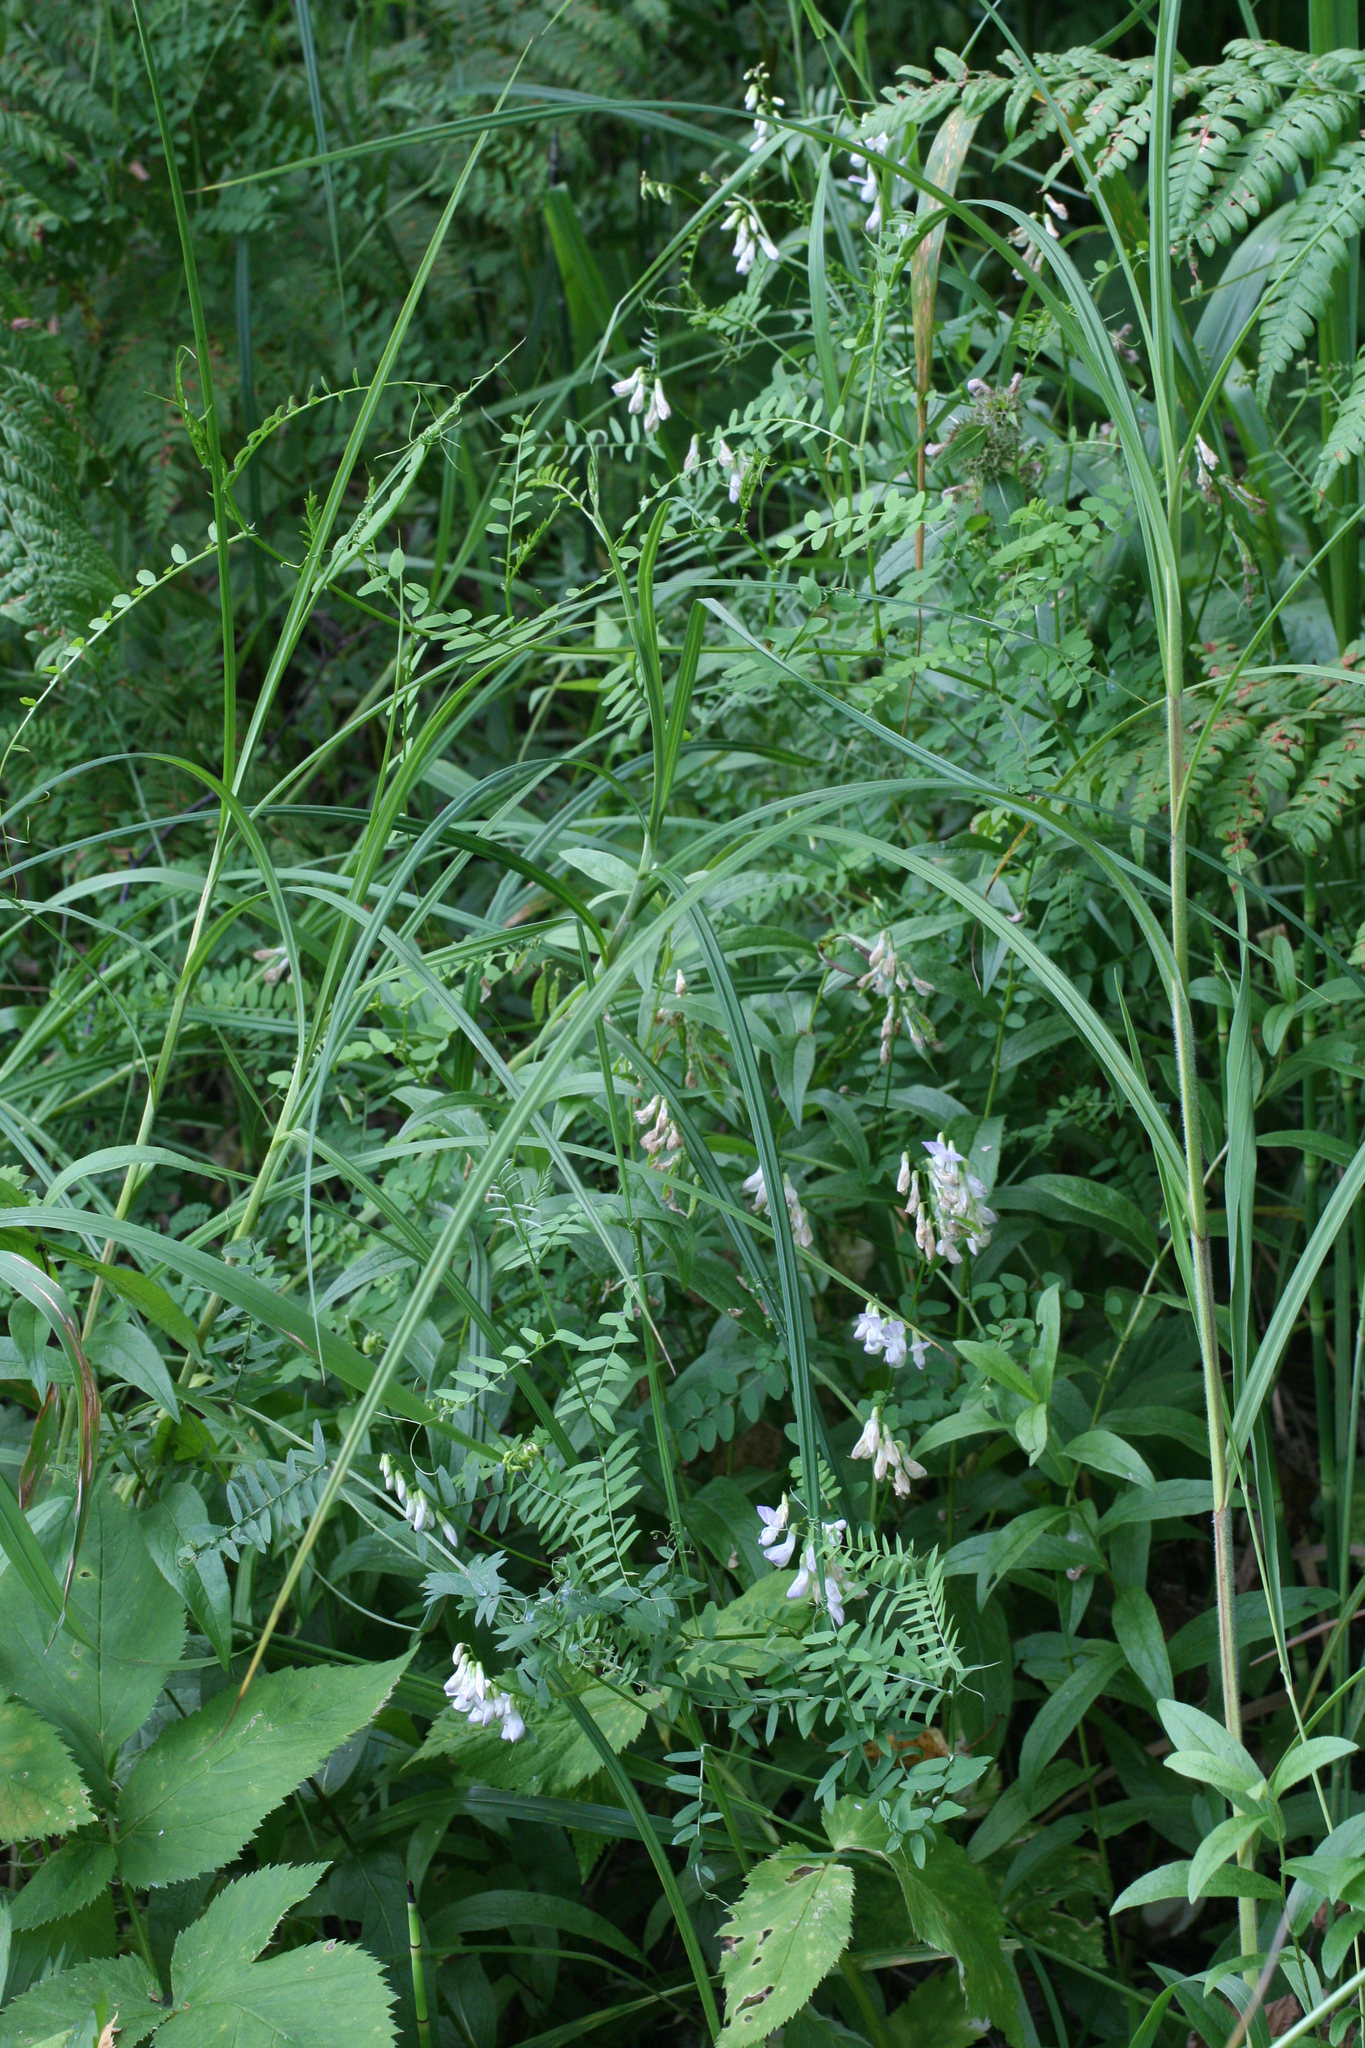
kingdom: Plantae
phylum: Tracheophyta
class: Magnoliopsida
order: Fabales
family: Fabaceae
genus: Vicia
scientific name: Vicia sylvatica
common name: Wood vetch
